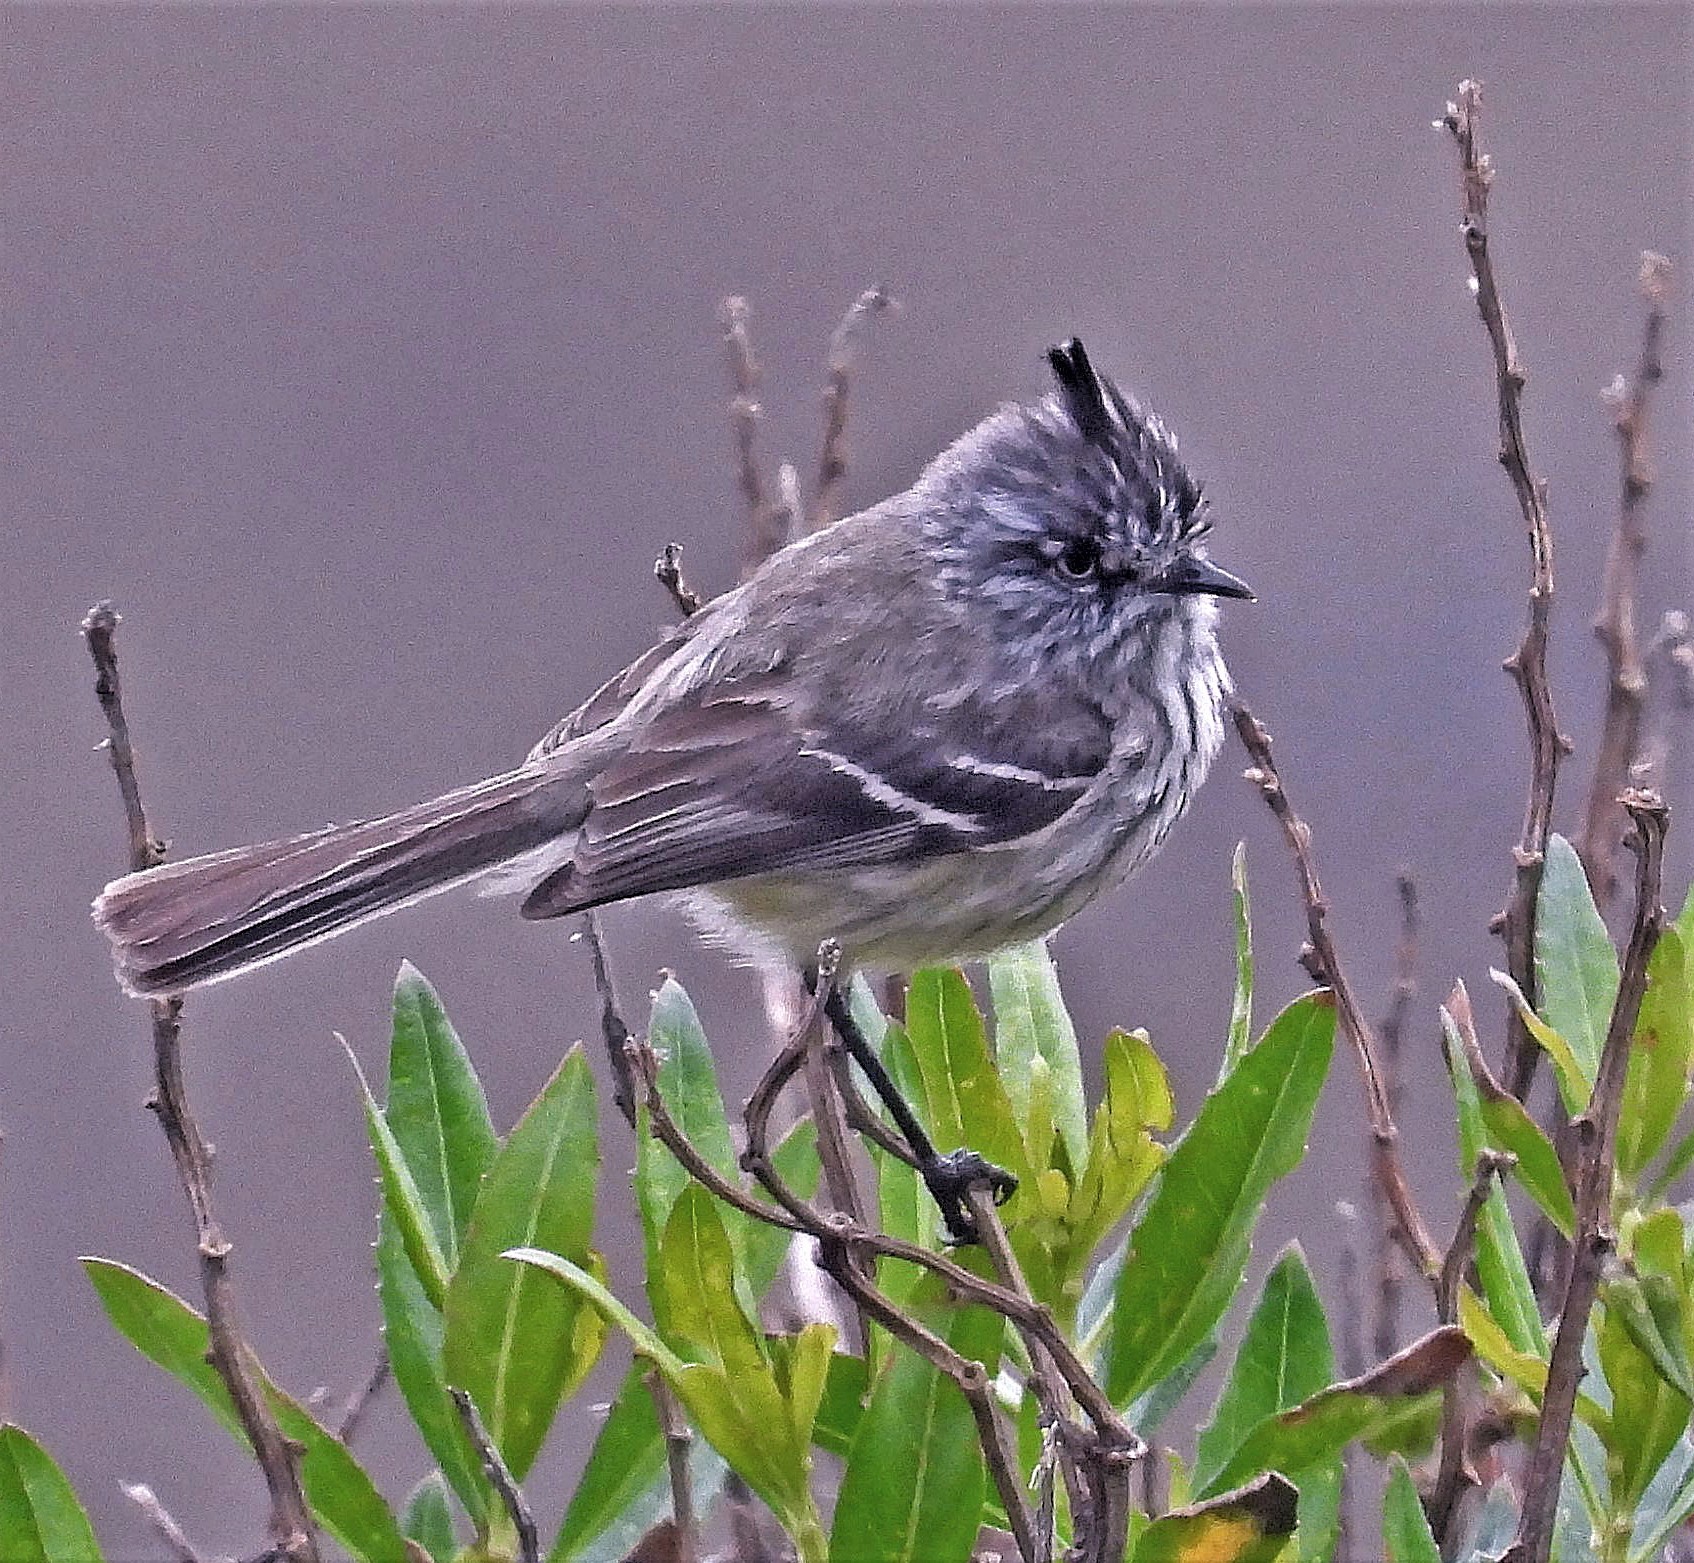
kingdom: Animalia
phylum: Chordata
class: Aves
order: Passeriformes
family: Tyrannidae
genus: Anairetes
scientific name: Anairetes parulus
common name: Tufted tit-tyrant
